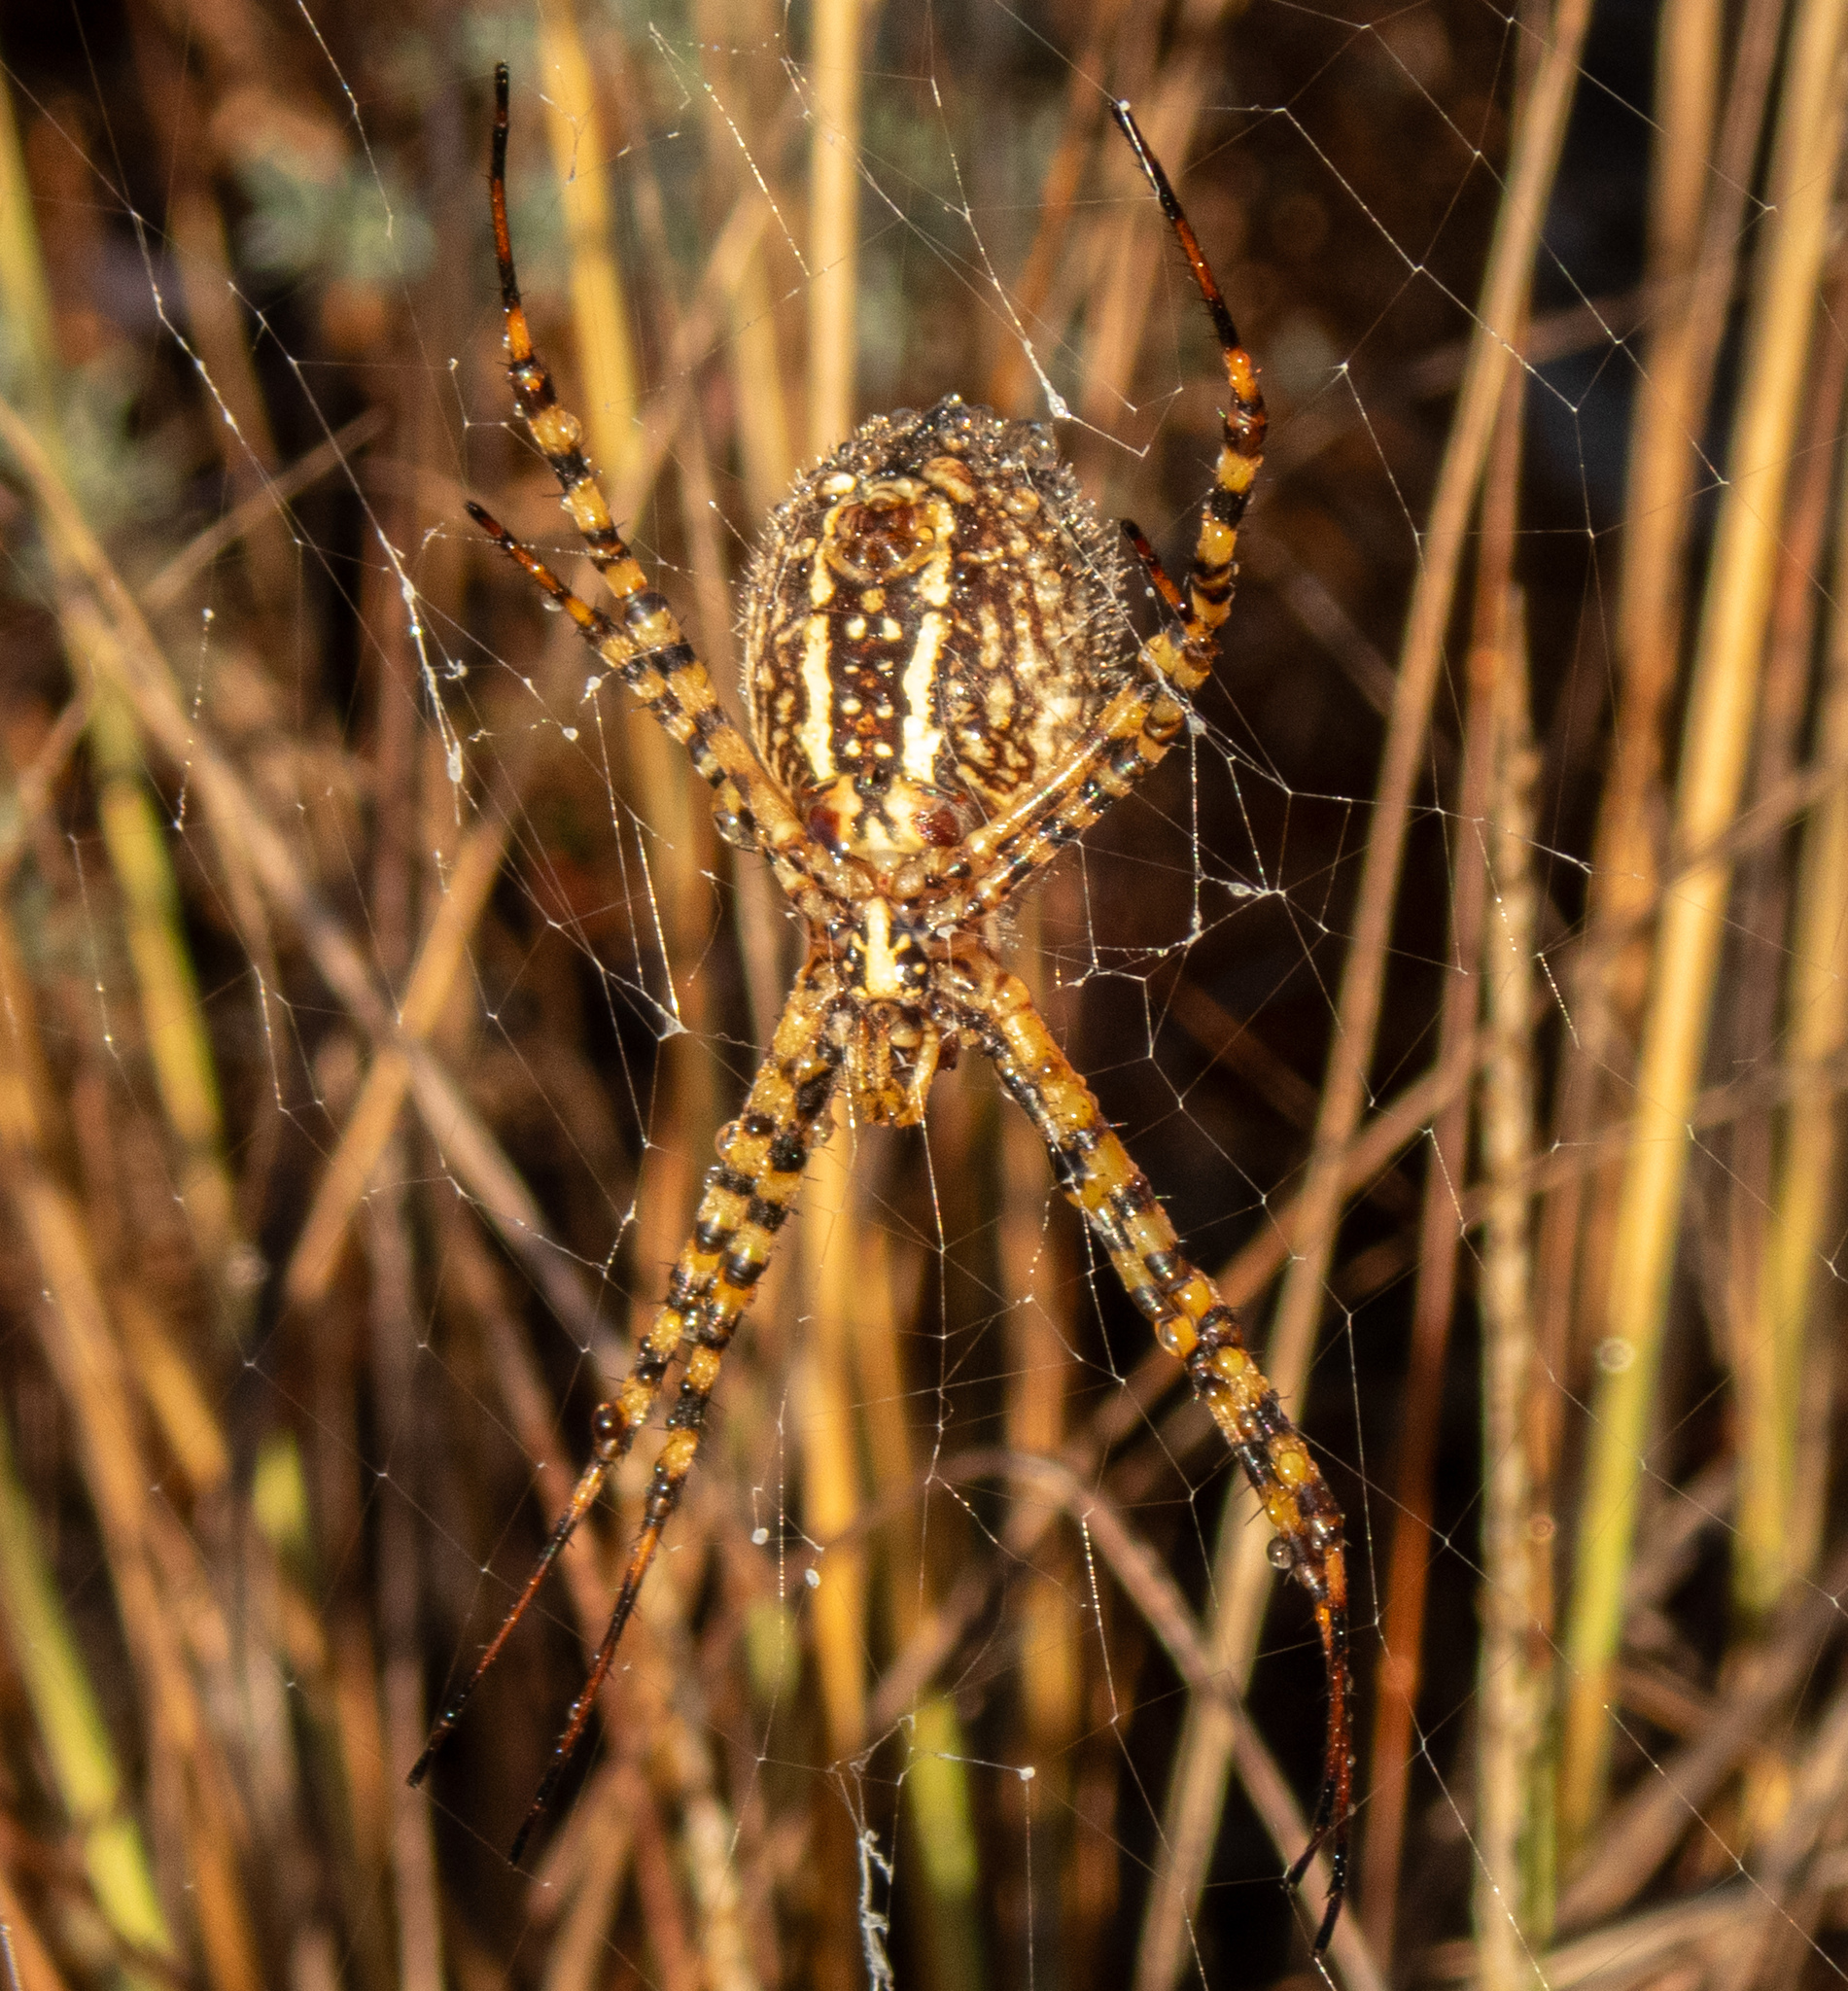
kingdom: Animalia
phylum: Arthropoda
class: Arachnida
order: Araneae
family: Araneidae
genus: Argiope
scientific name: Argiope trifasciata
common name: Banded garden spider
